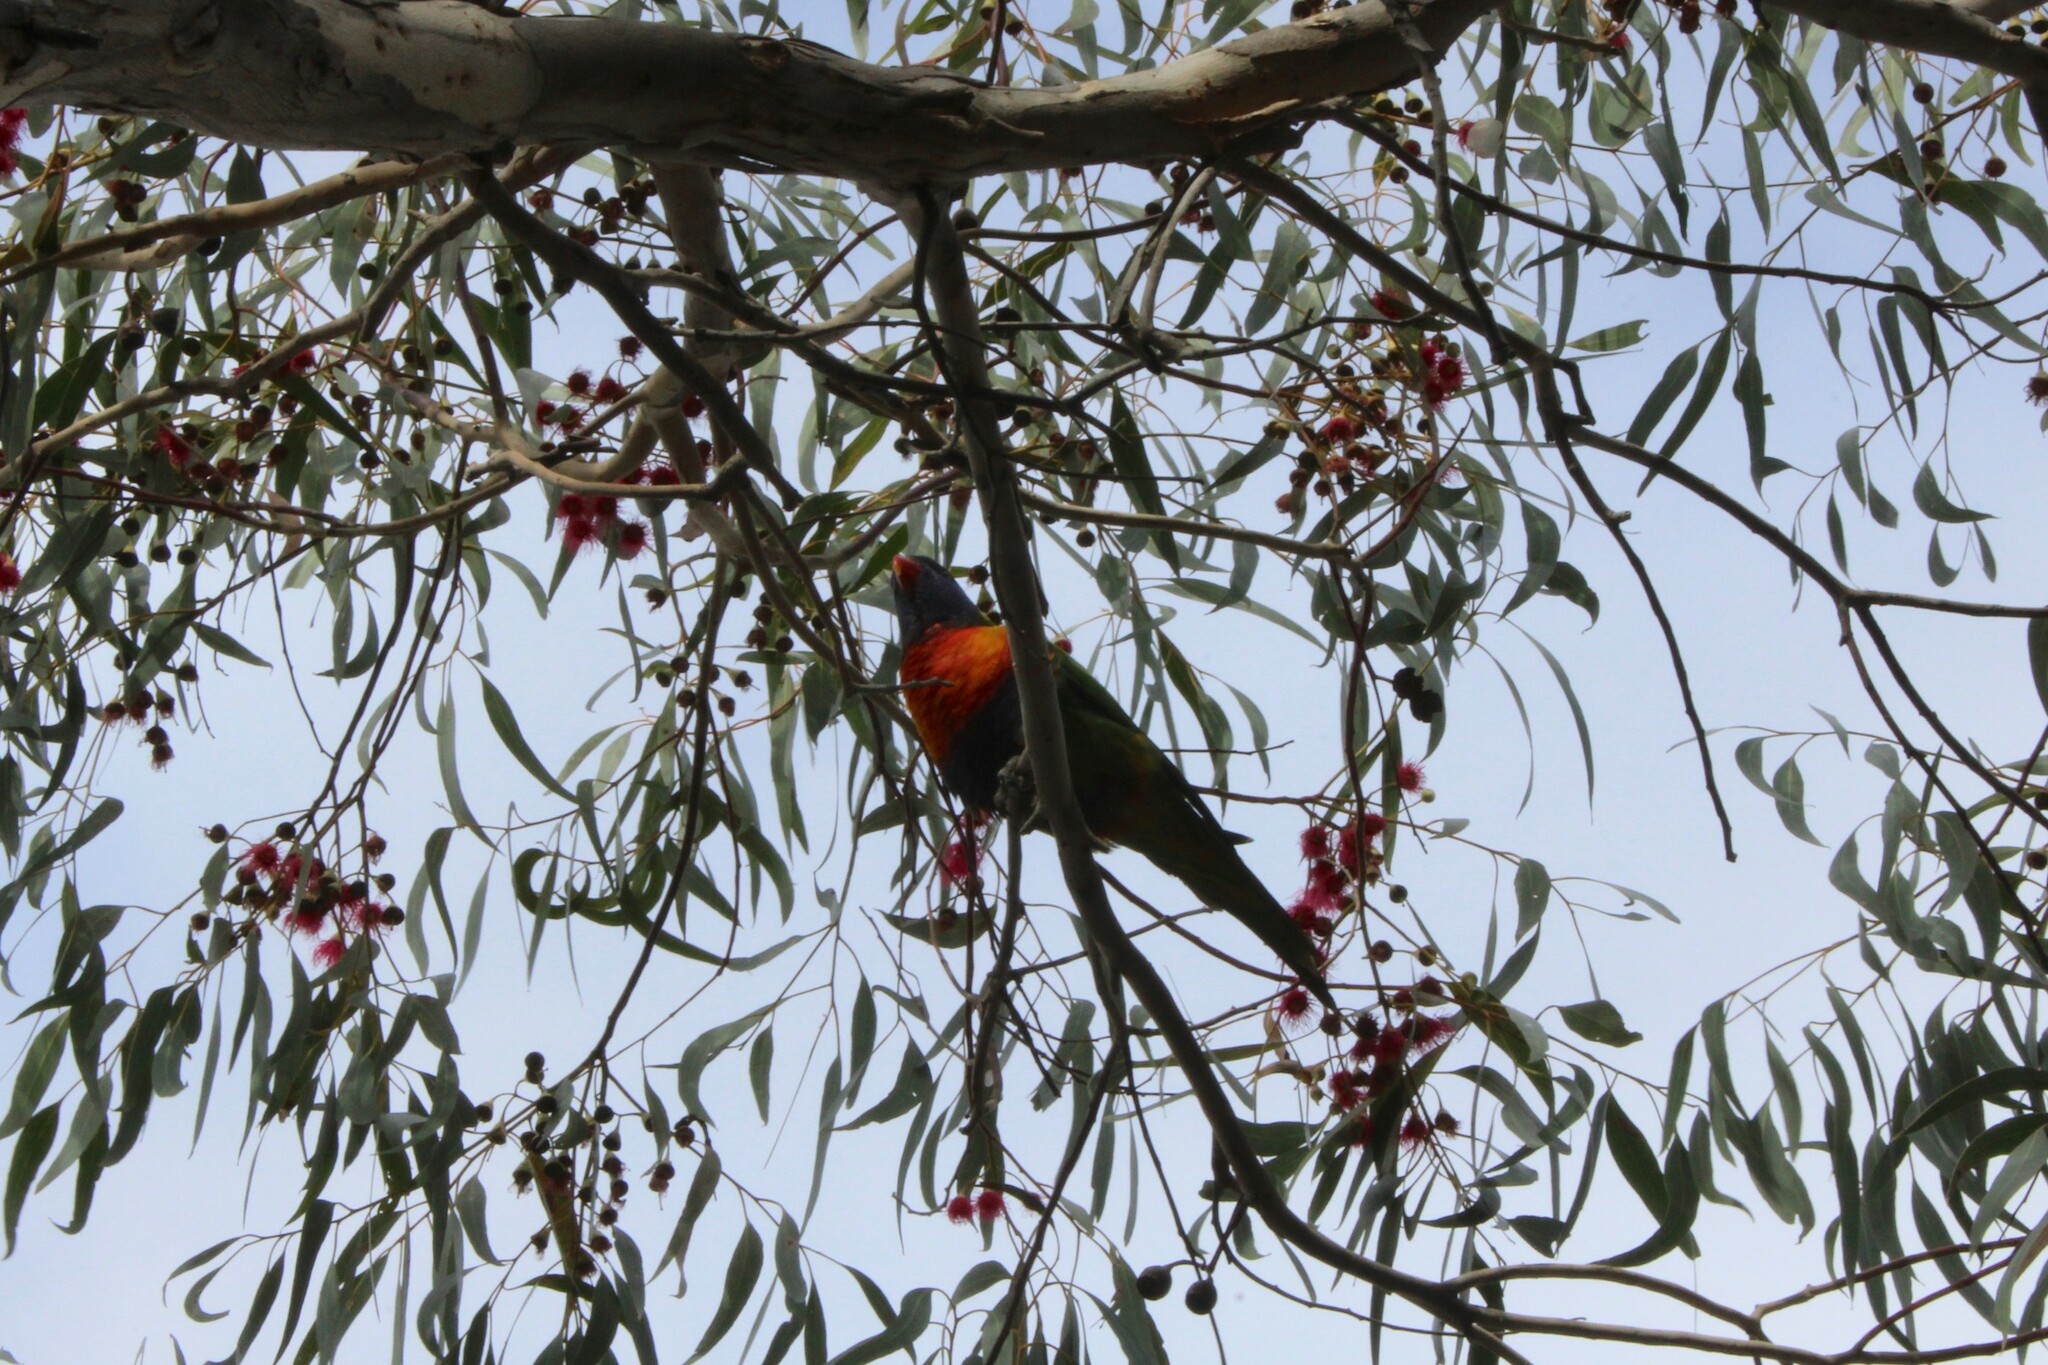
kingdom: Animalia
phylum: Chordata
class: Aves
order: Psittaciformes
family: Psittacidae
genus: Trichoglossus
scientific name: Trichoglossus haematodus
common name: Coconut lorikeet
